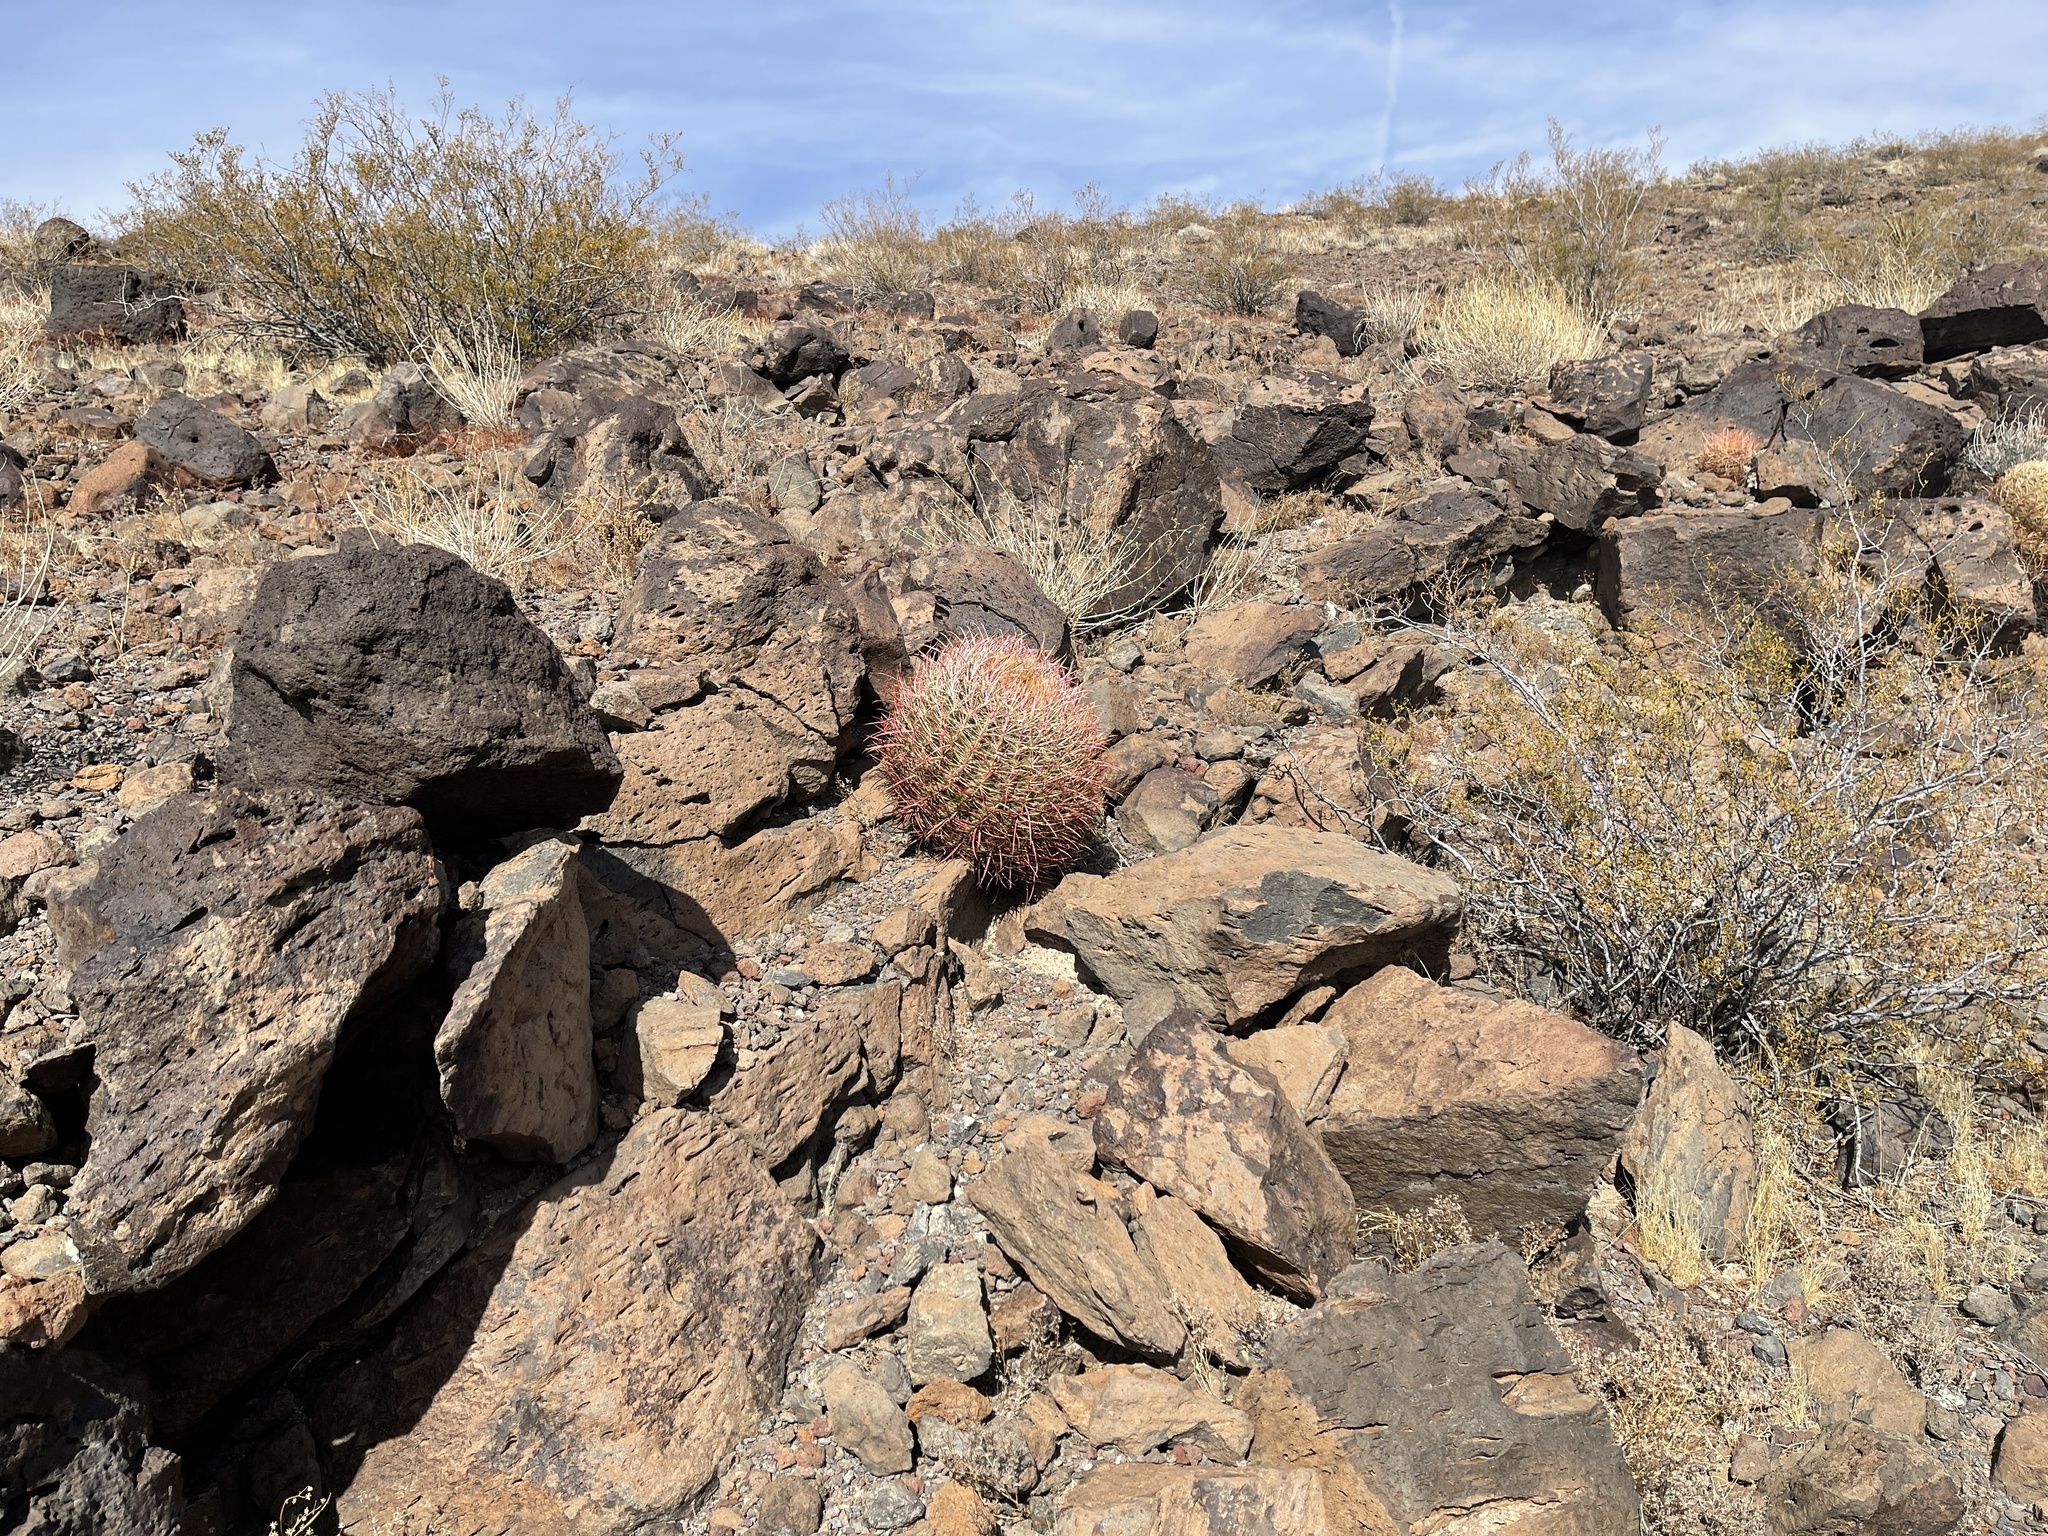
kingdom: Plantae
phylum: Tracheophyta
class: Magnoliopsida
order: Caryophyllales
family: Cactaceae
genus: Ferocactus
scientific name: Ferocactus cylindraceus
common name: California barrel cactus
